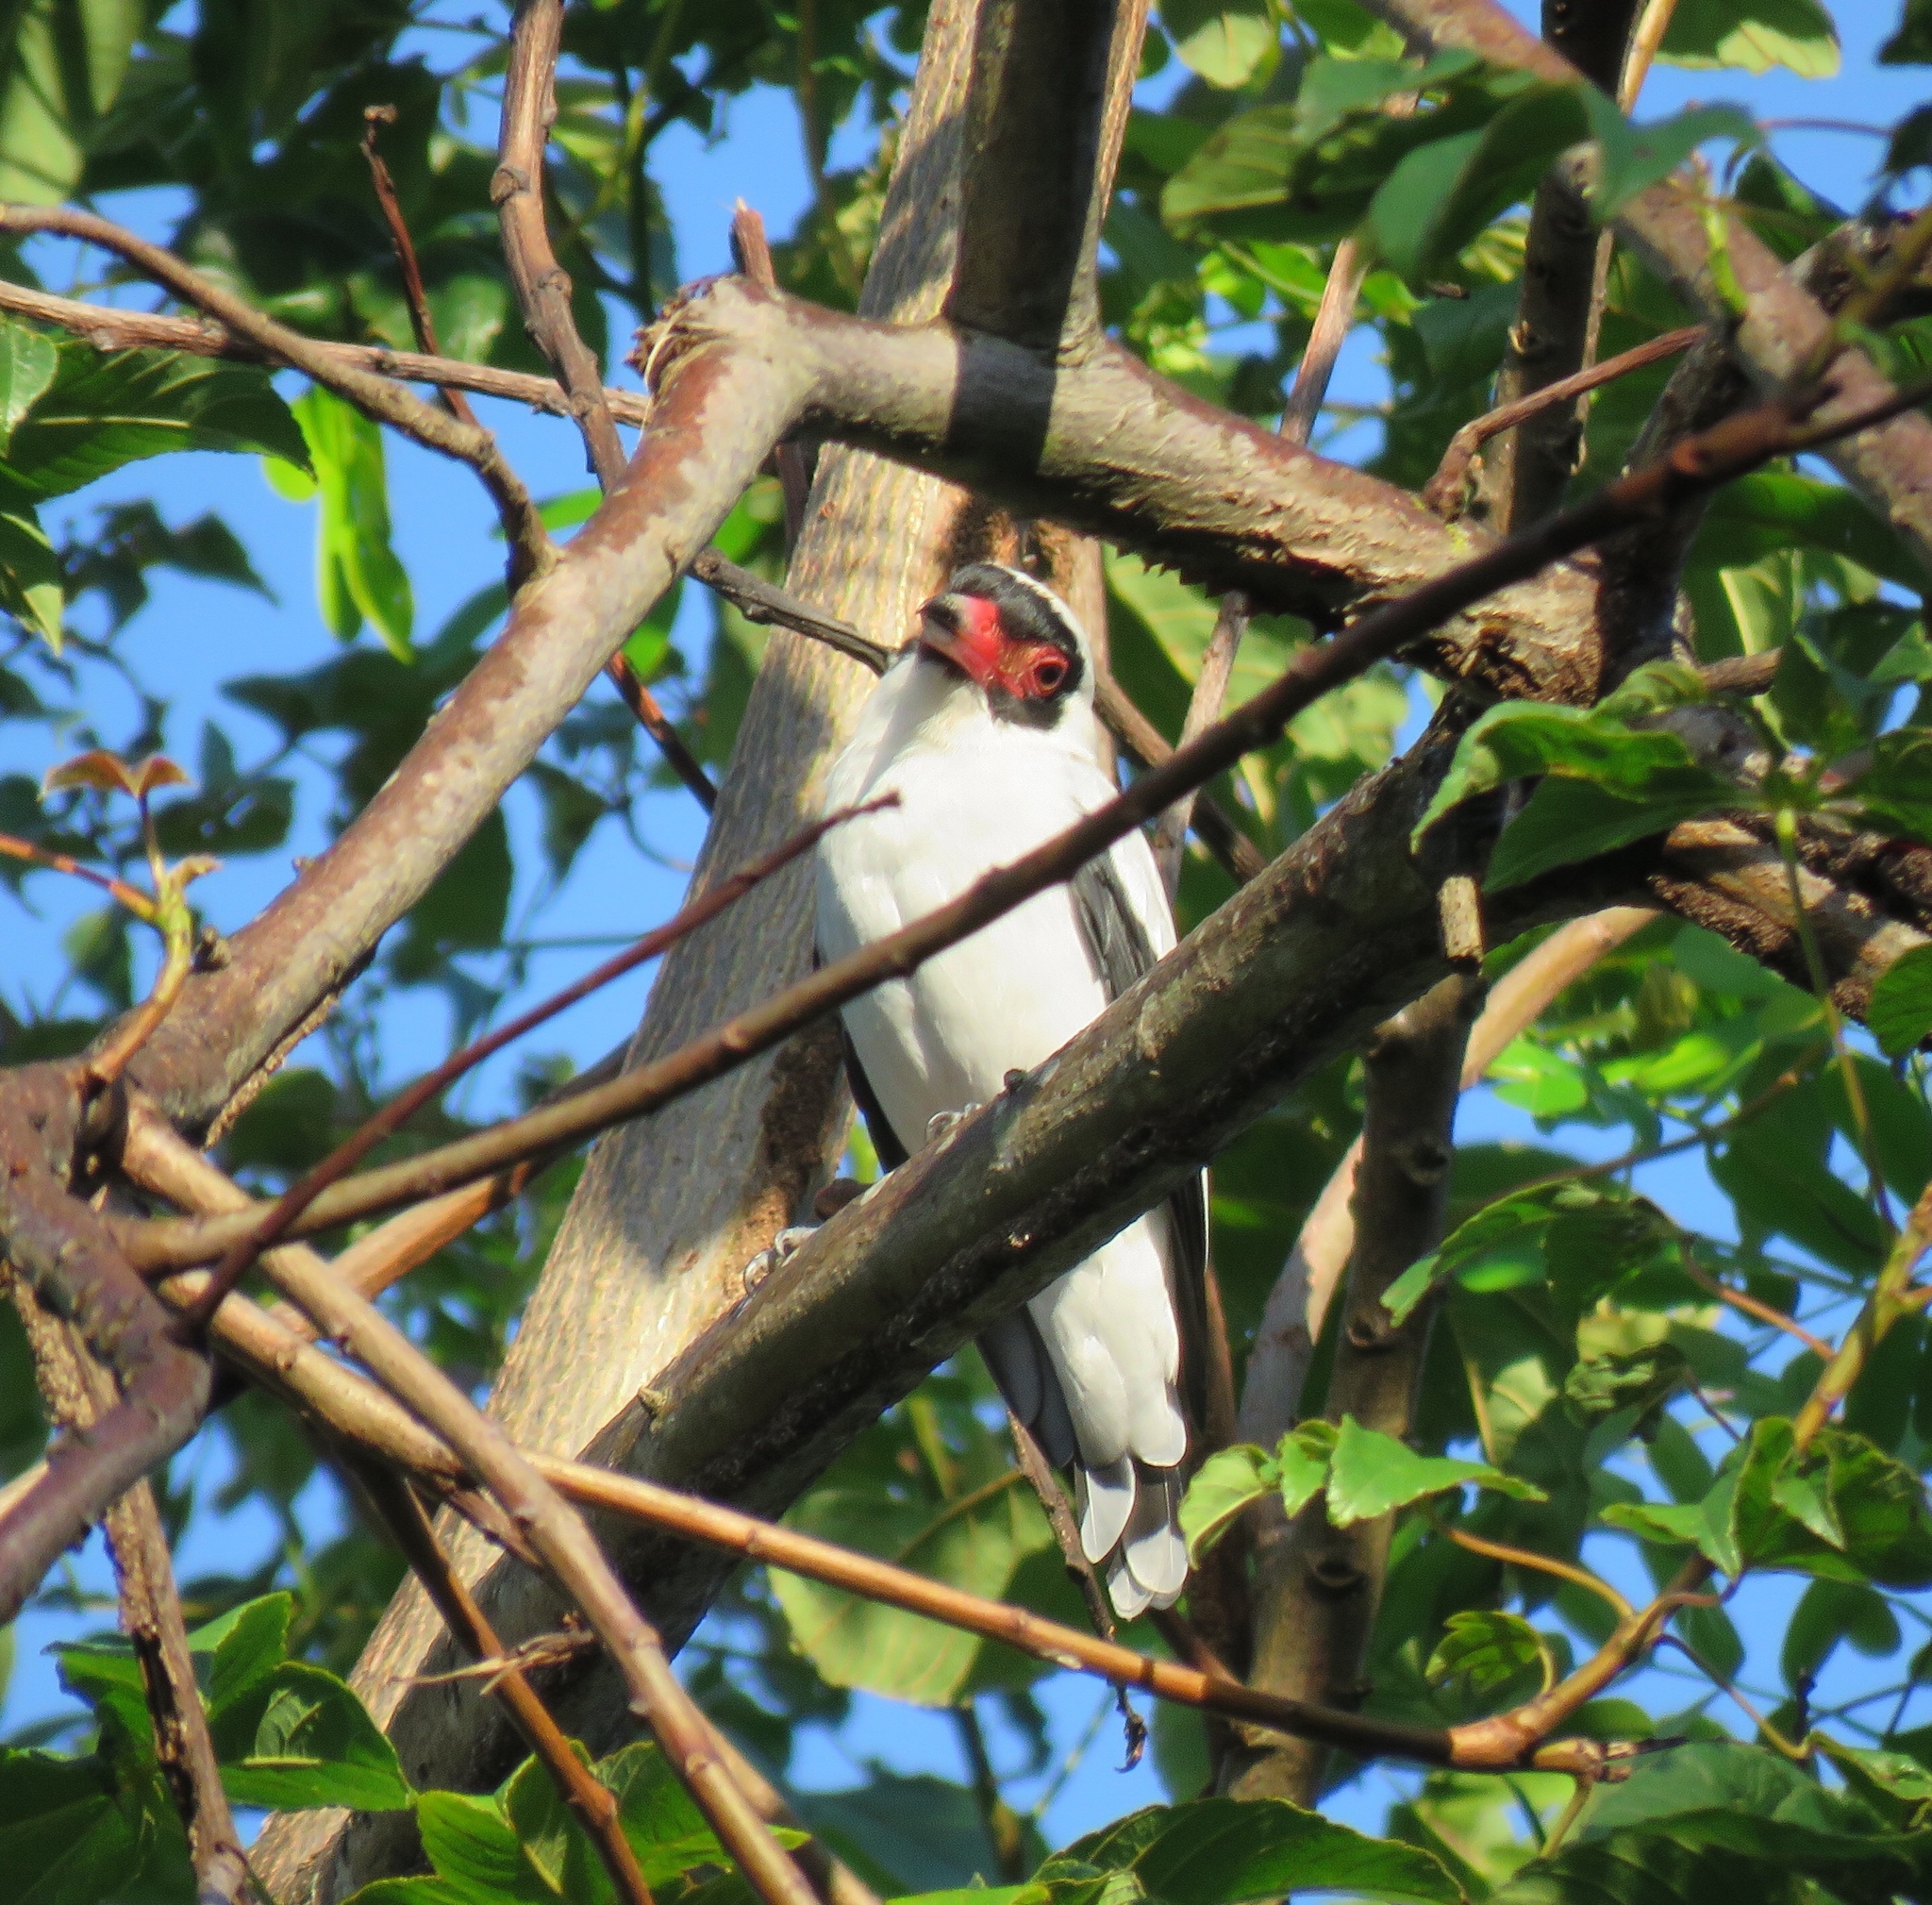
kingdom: Animalia
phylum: Chordata
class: Aves
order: Passeriformes
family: Cotingidae
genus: Tityra
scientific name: Tityra semifasciata
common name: Masked tityra
